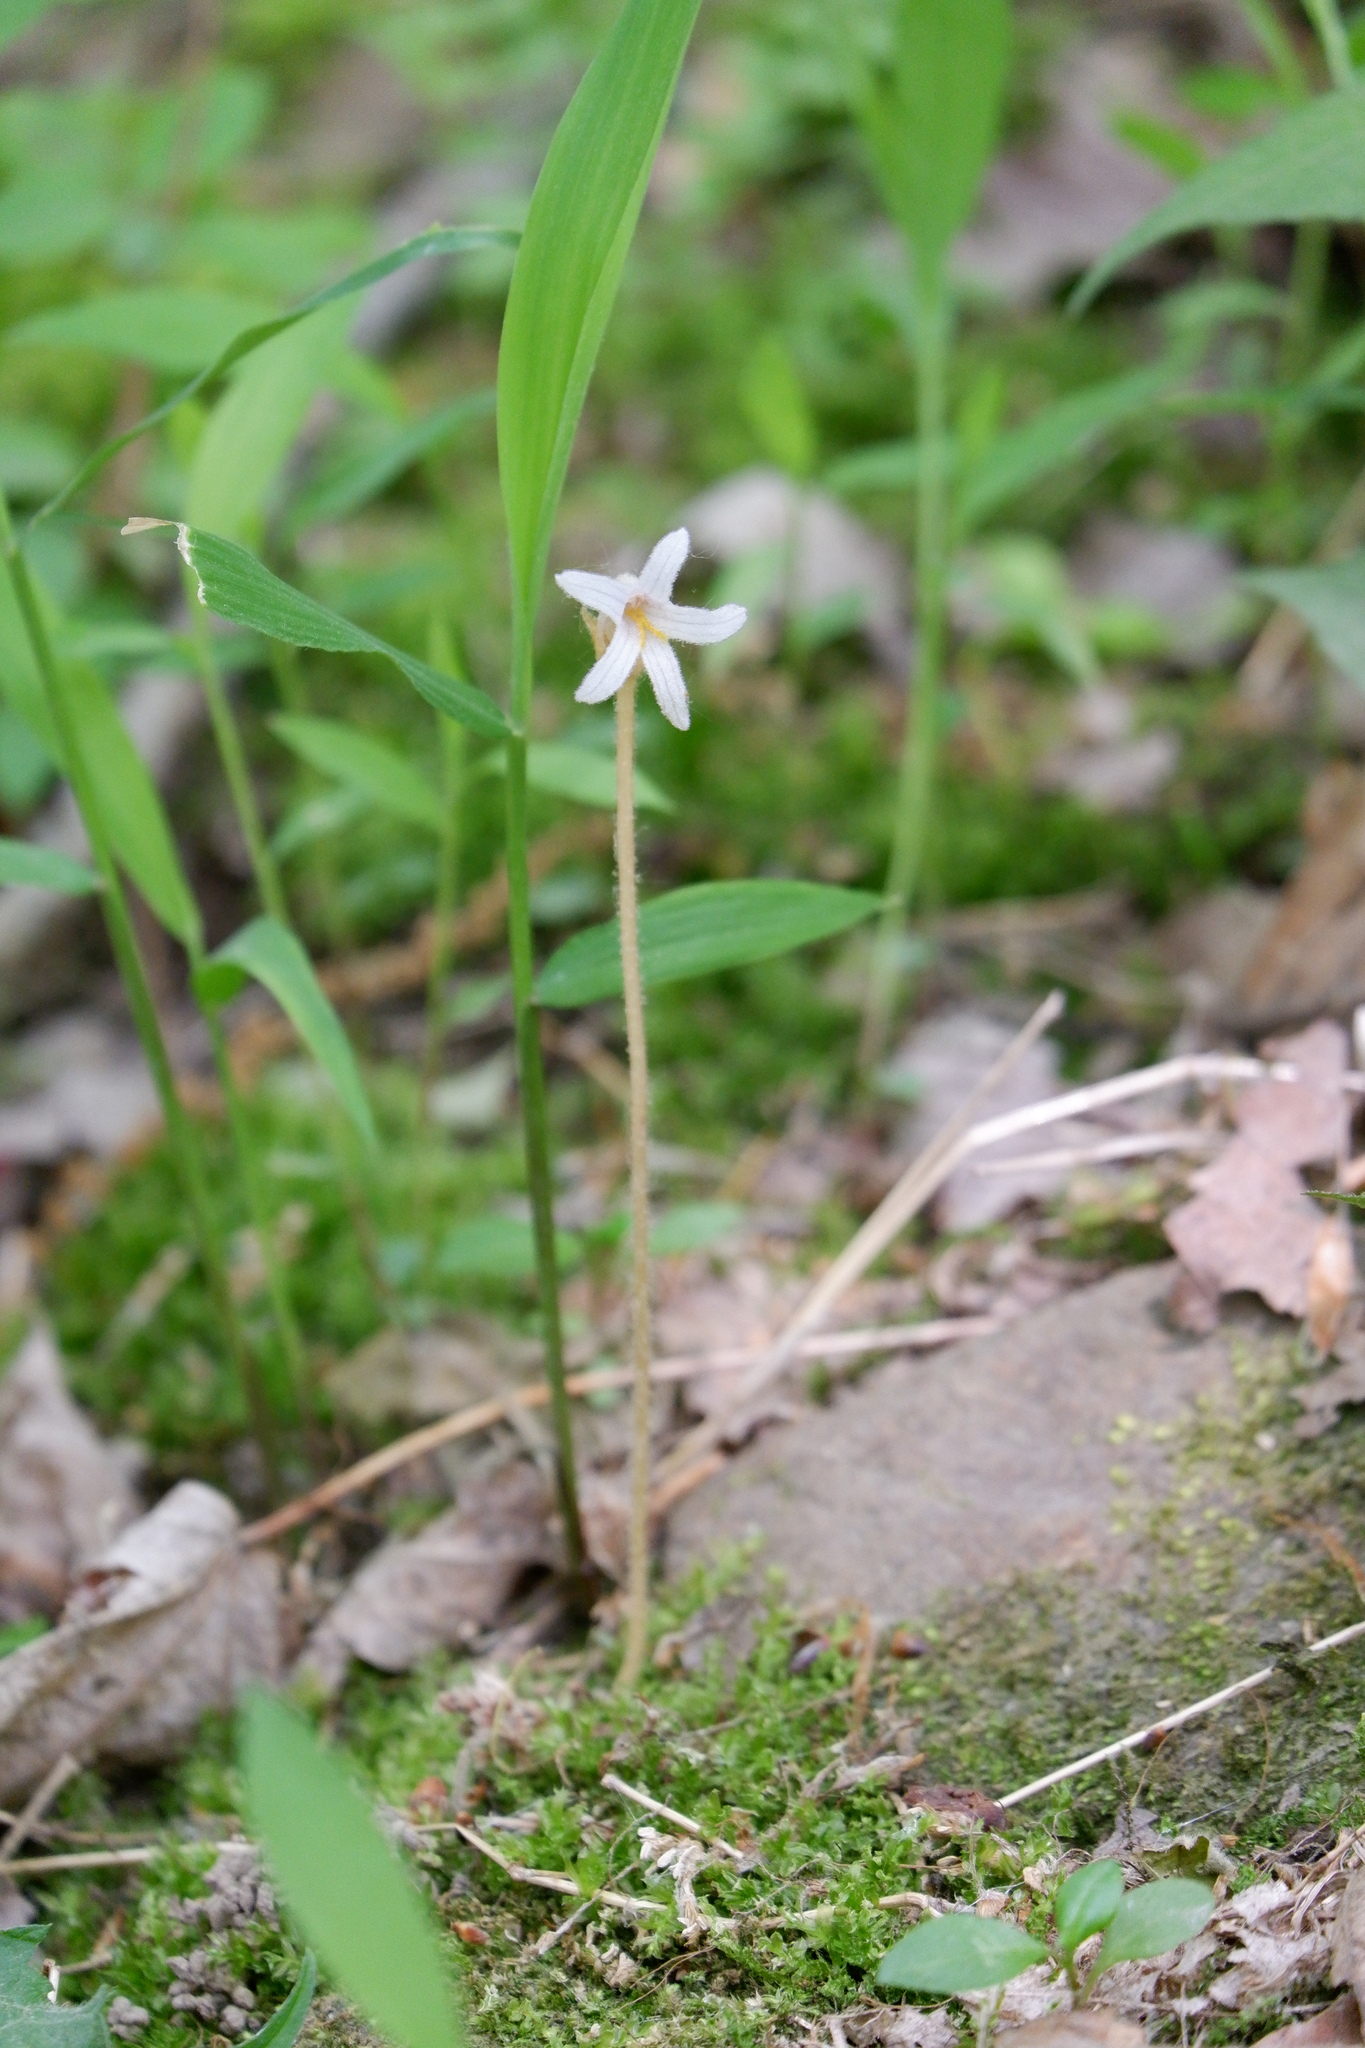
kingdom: Plantae
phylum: Tracheophyta
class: Magnoliopsida
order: Lamiales
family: Orobanchaceae
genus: Aphyllon
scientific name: Aphyllon uniflorum
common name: One-flowered broomrape
